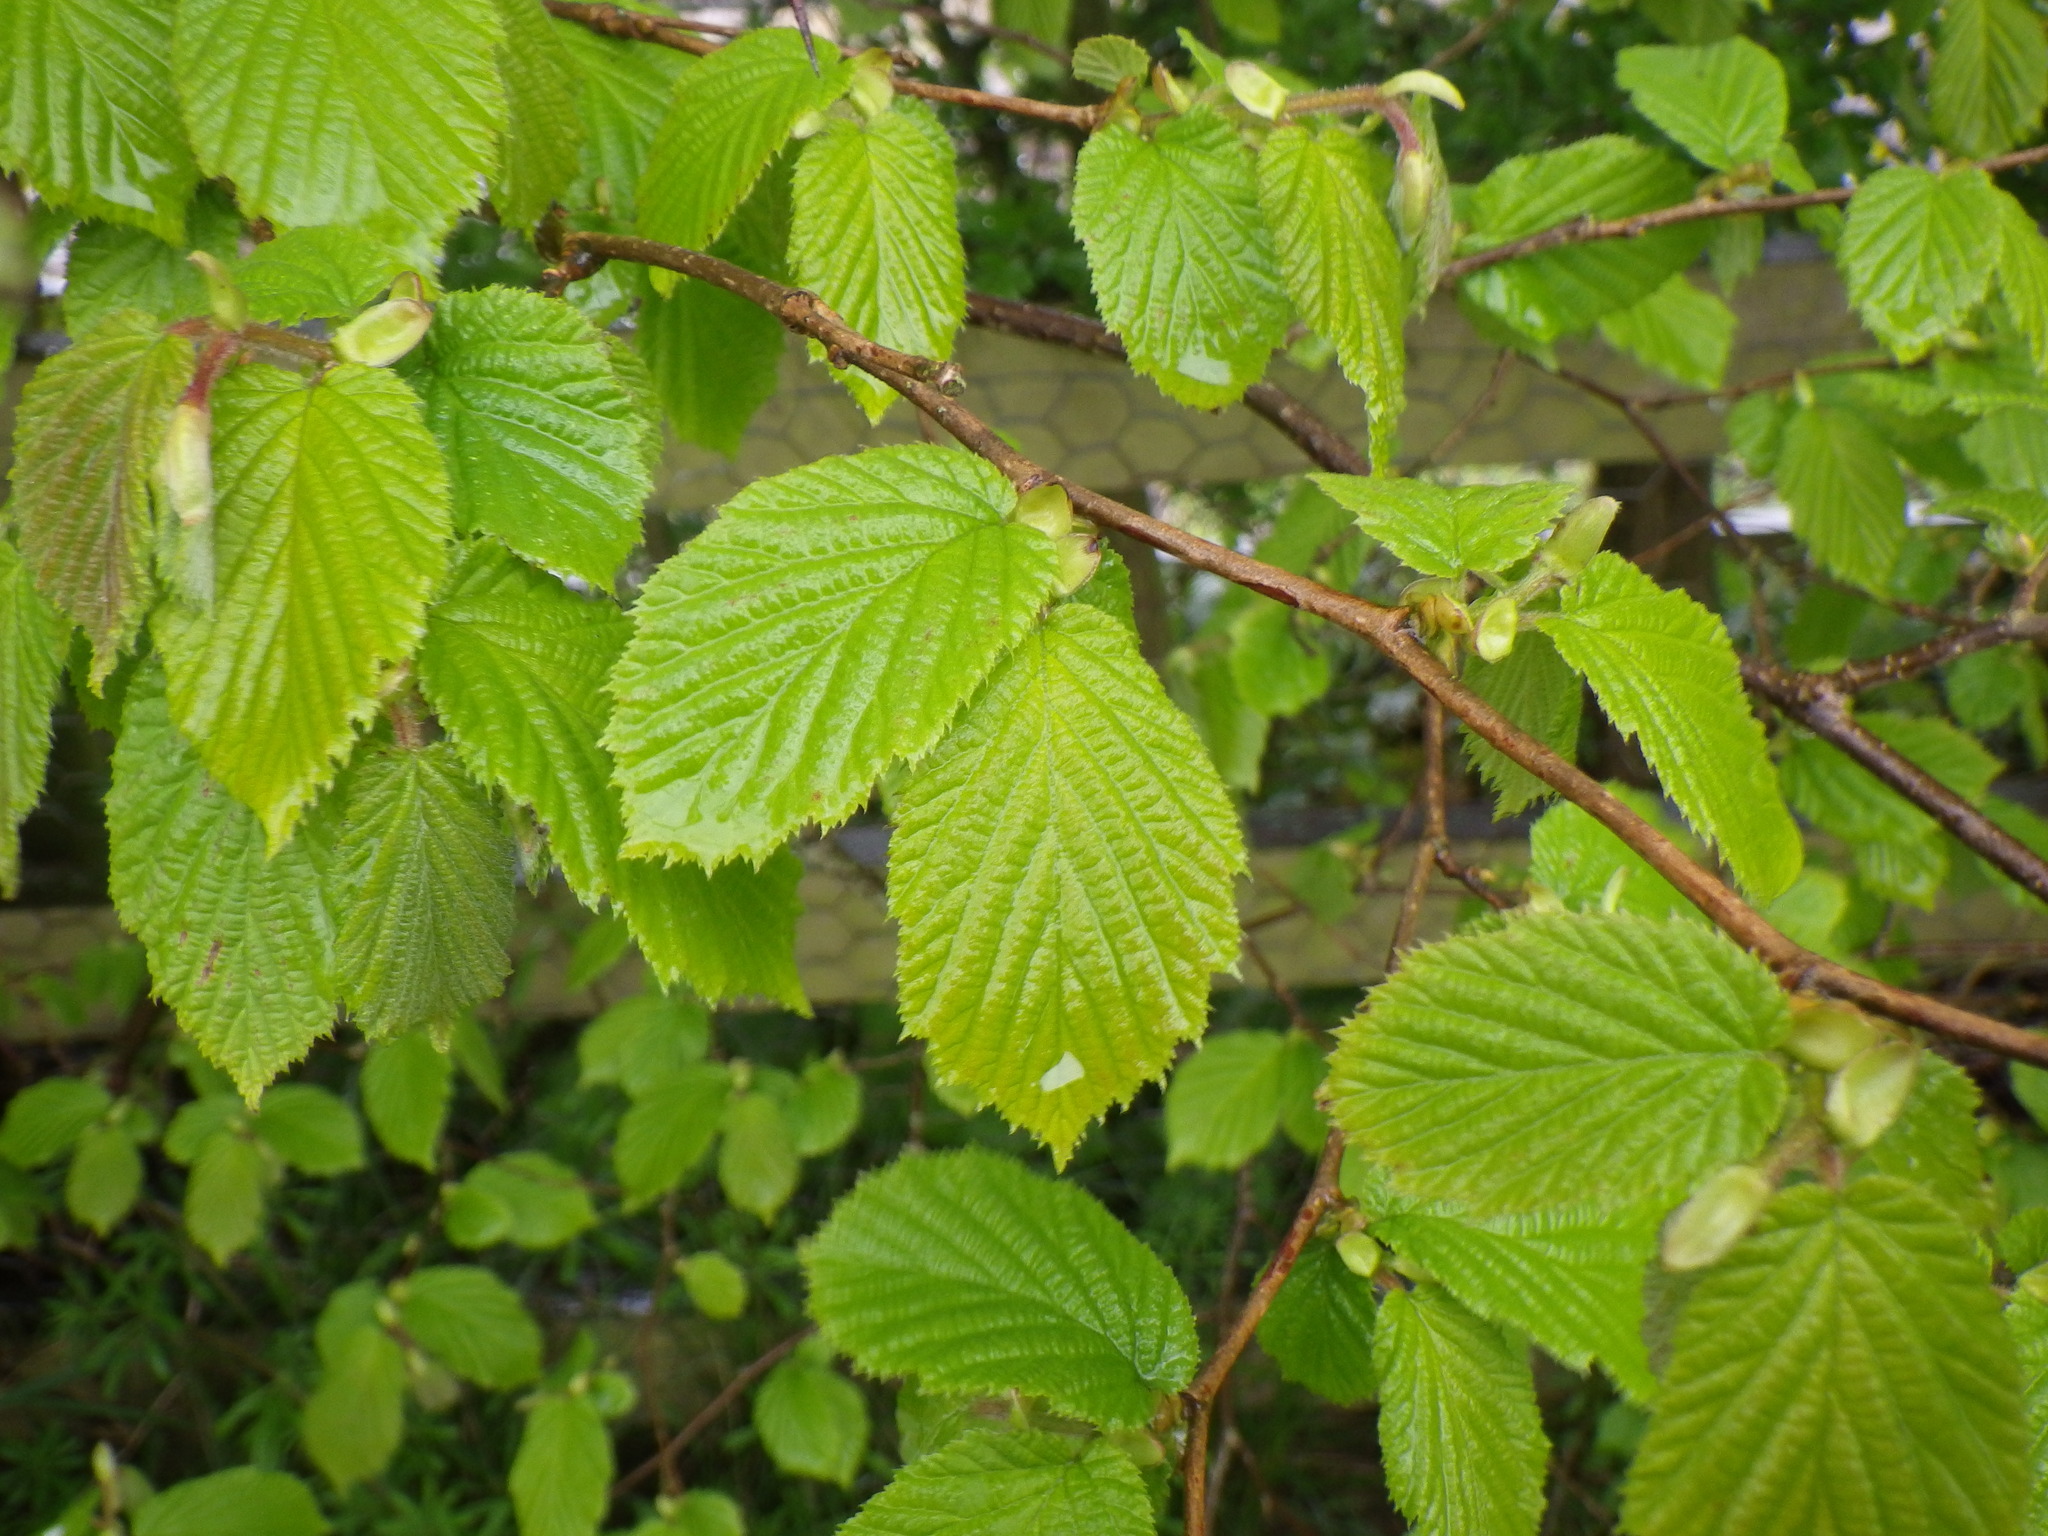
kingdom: Plantae
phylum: Tracheophyta
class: Magnoliopsida
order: Fagales
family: Betulaceae
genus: Corylus
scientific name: Corylus avellana
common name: European hazel
